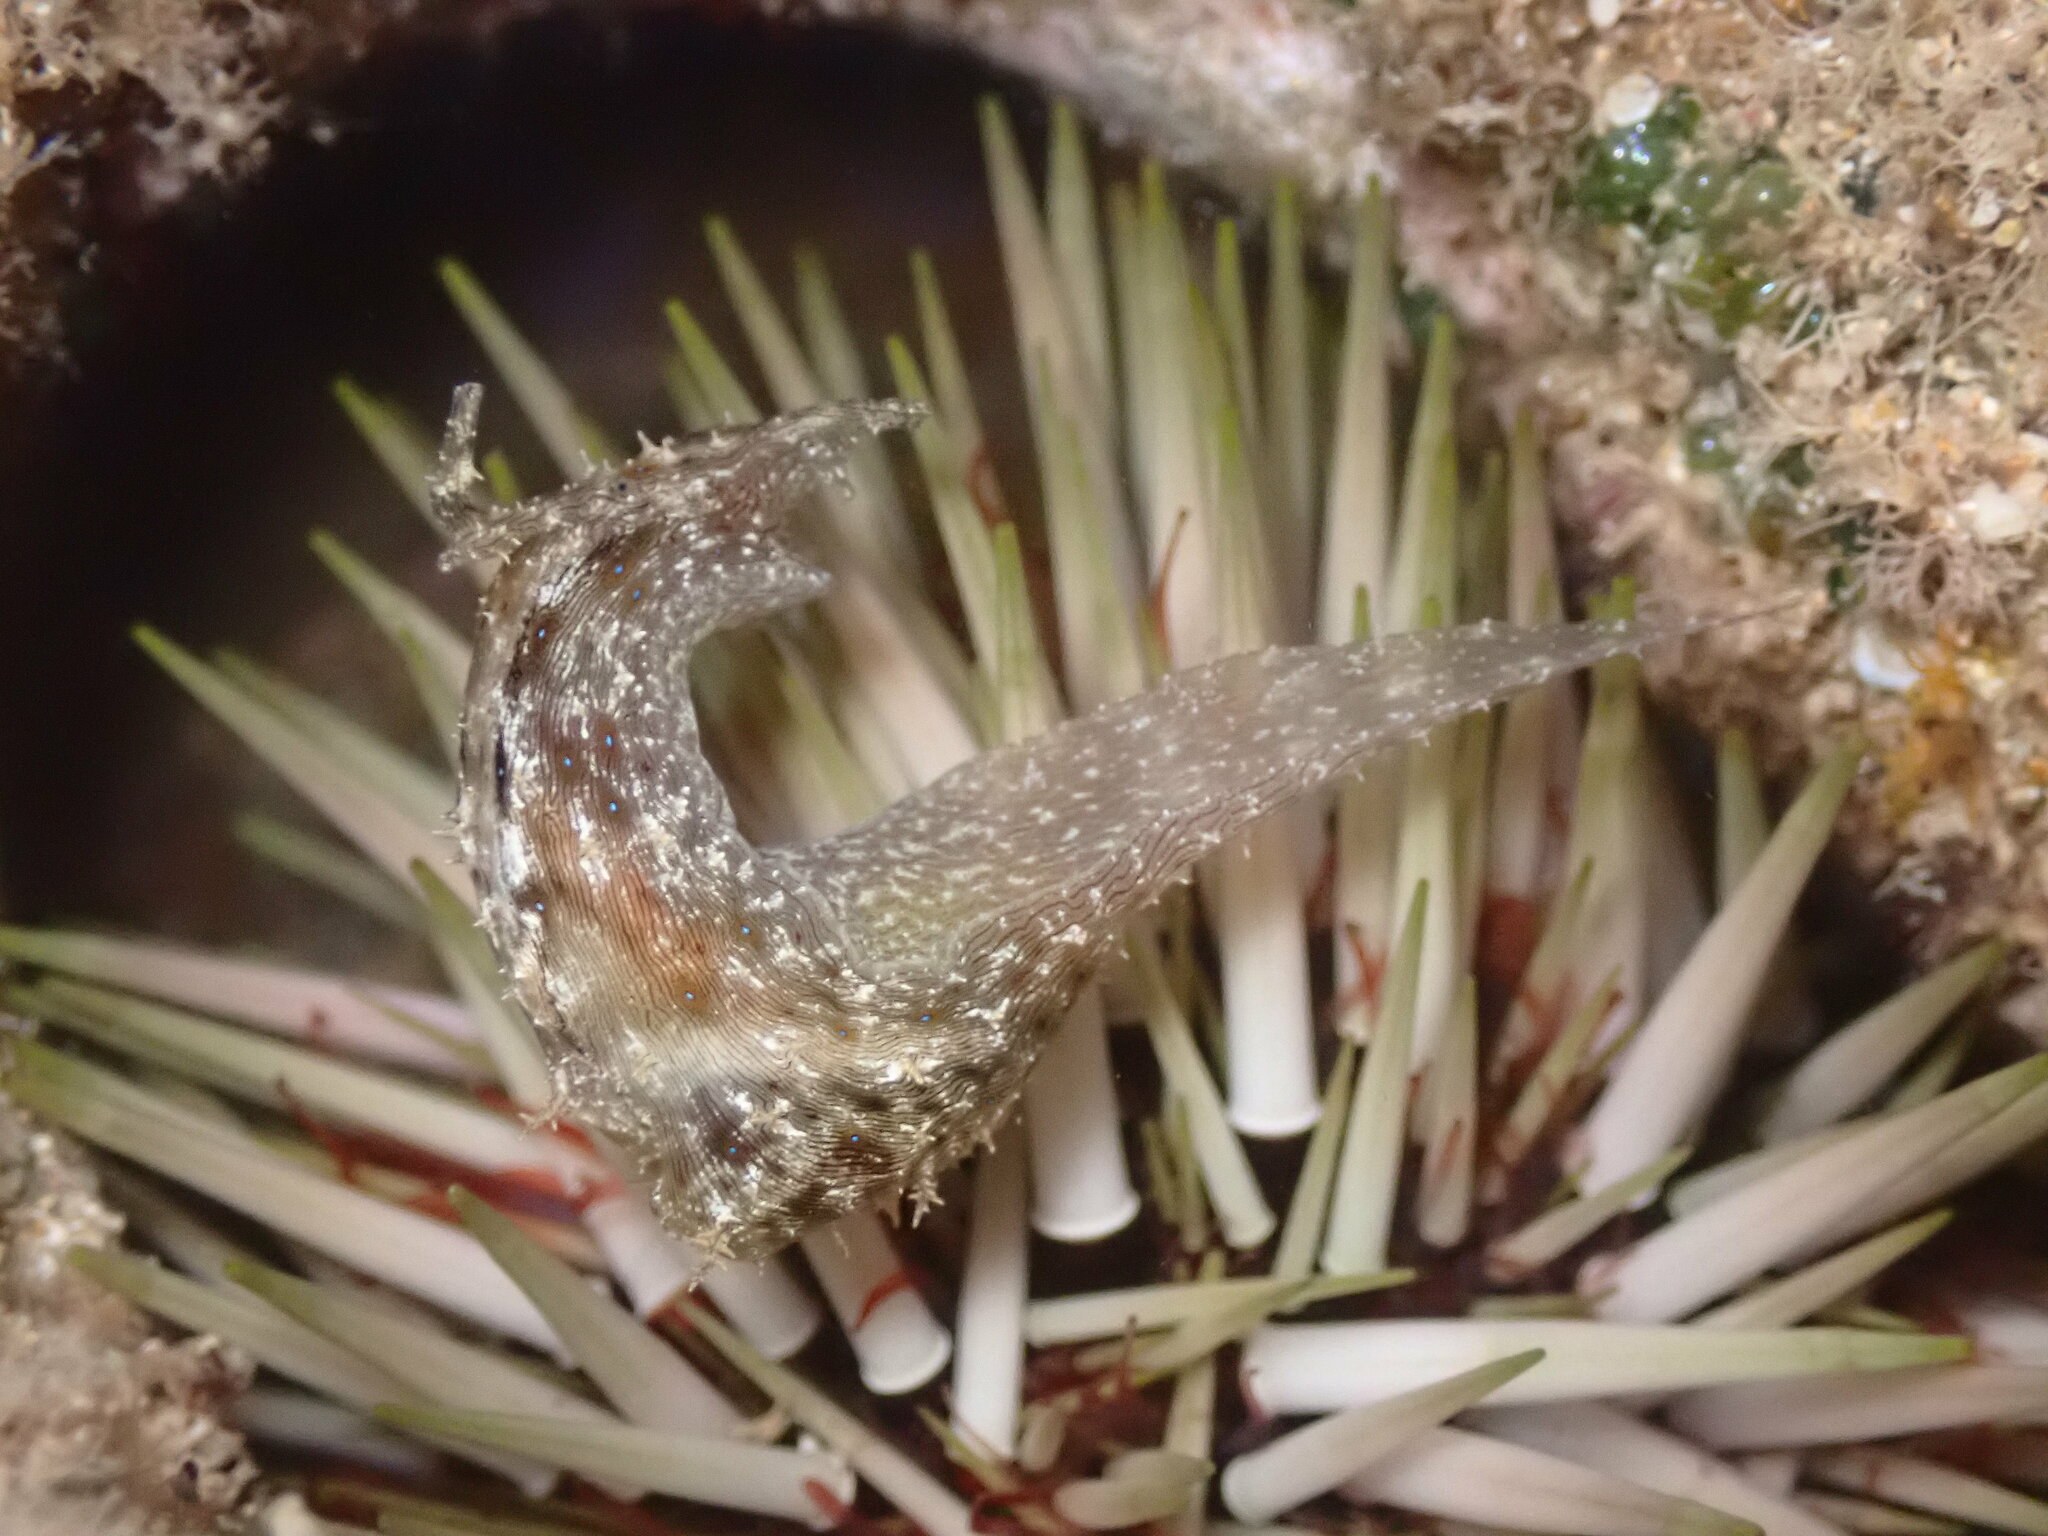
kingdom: Animalia
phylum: Mollusca
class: Gastropoda
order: Aplysiida
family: Aplysiidae
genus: Stylocheilus
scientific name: Stylocheilus striatus
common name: Striated seahare
